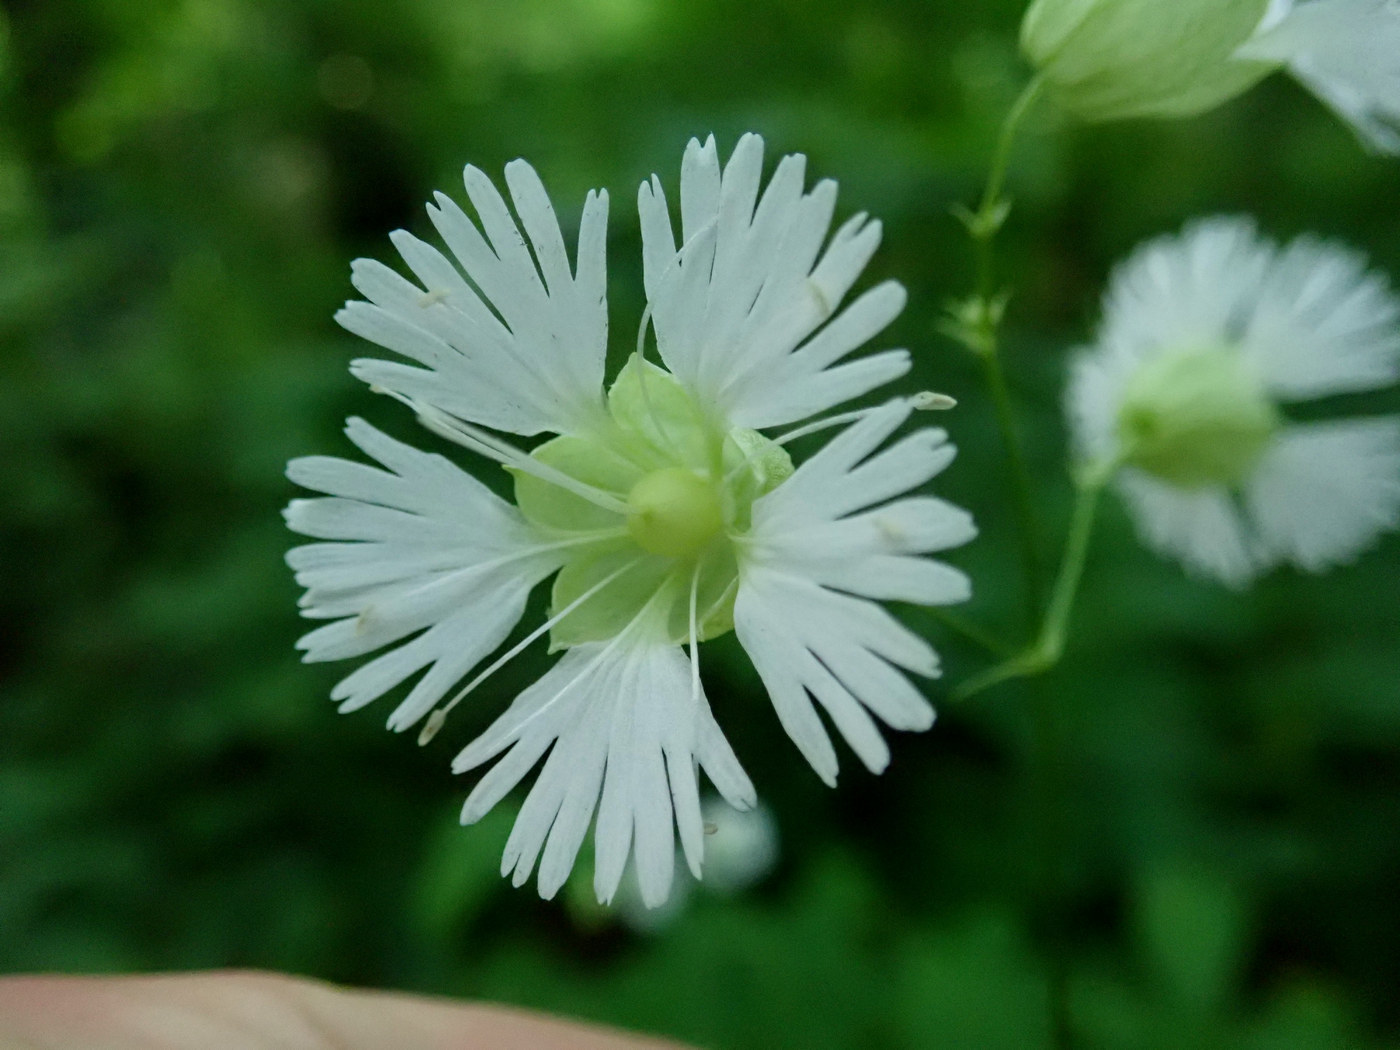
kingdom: Plantae
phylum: Tracheophyta
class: Magnoliopsida
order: Caryophyllales
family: Caryophyllaceae
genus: Silene
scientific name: Silene stellata
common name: Starry campion
